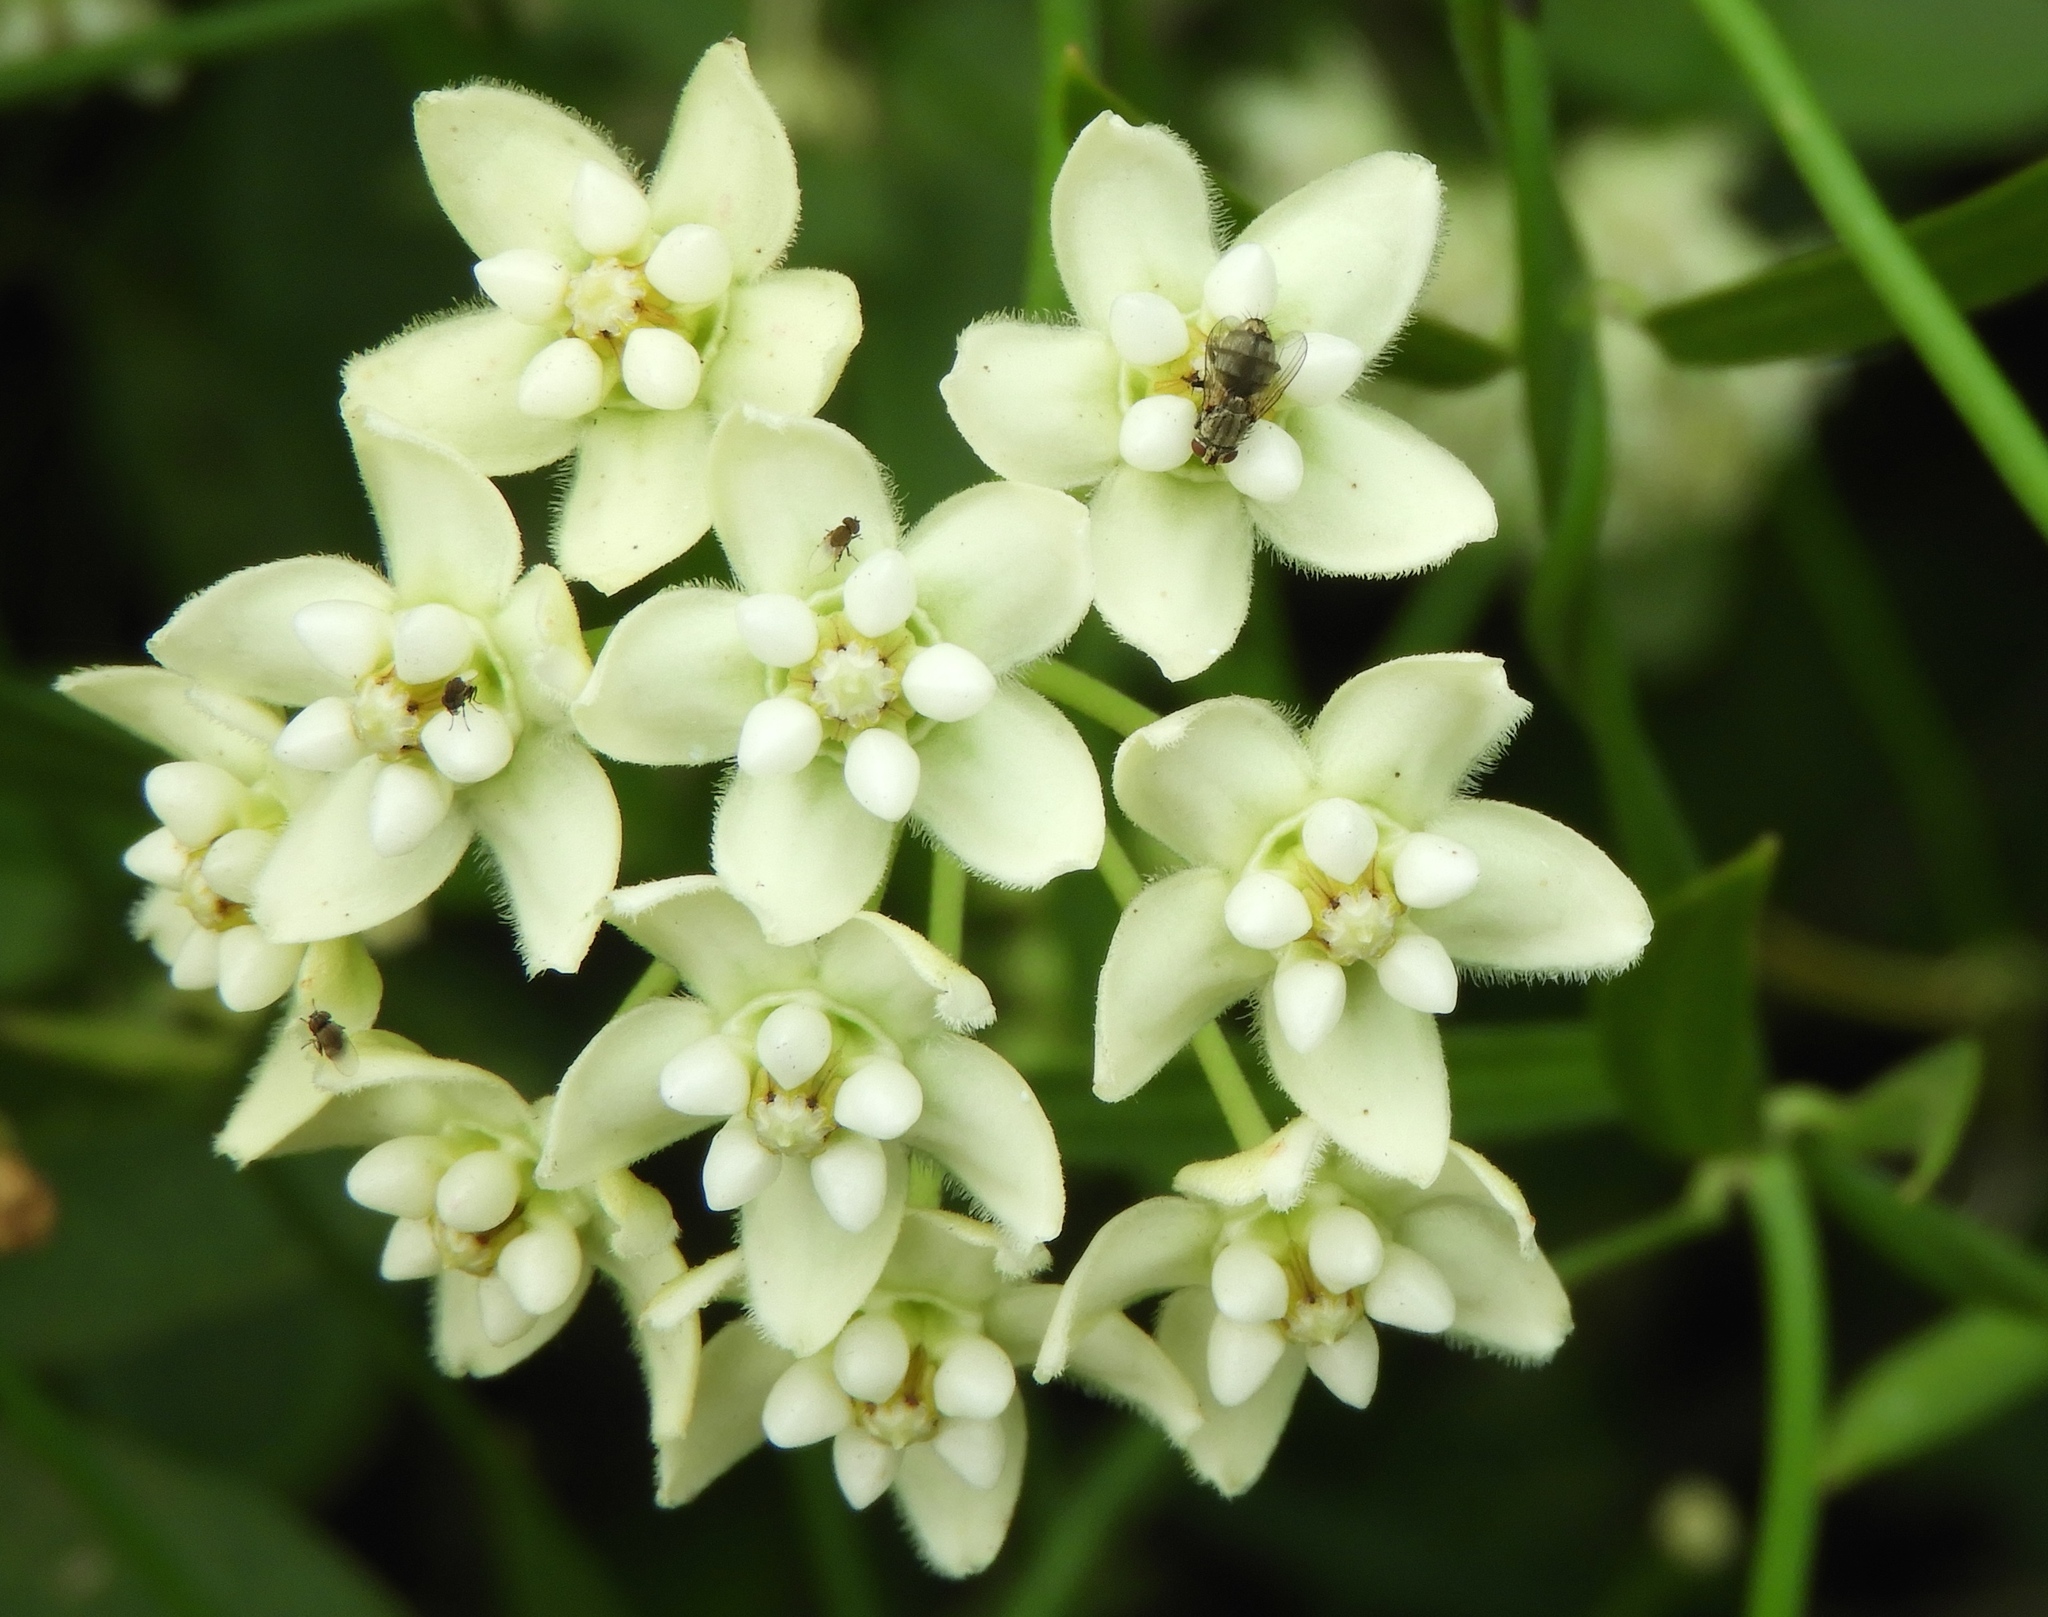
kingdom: Plantae
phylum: Tracheophyta
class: Magnoliopsida
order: Gentianales
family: Apocynaceae
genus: Funastrum
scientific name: Funastrum clausum
